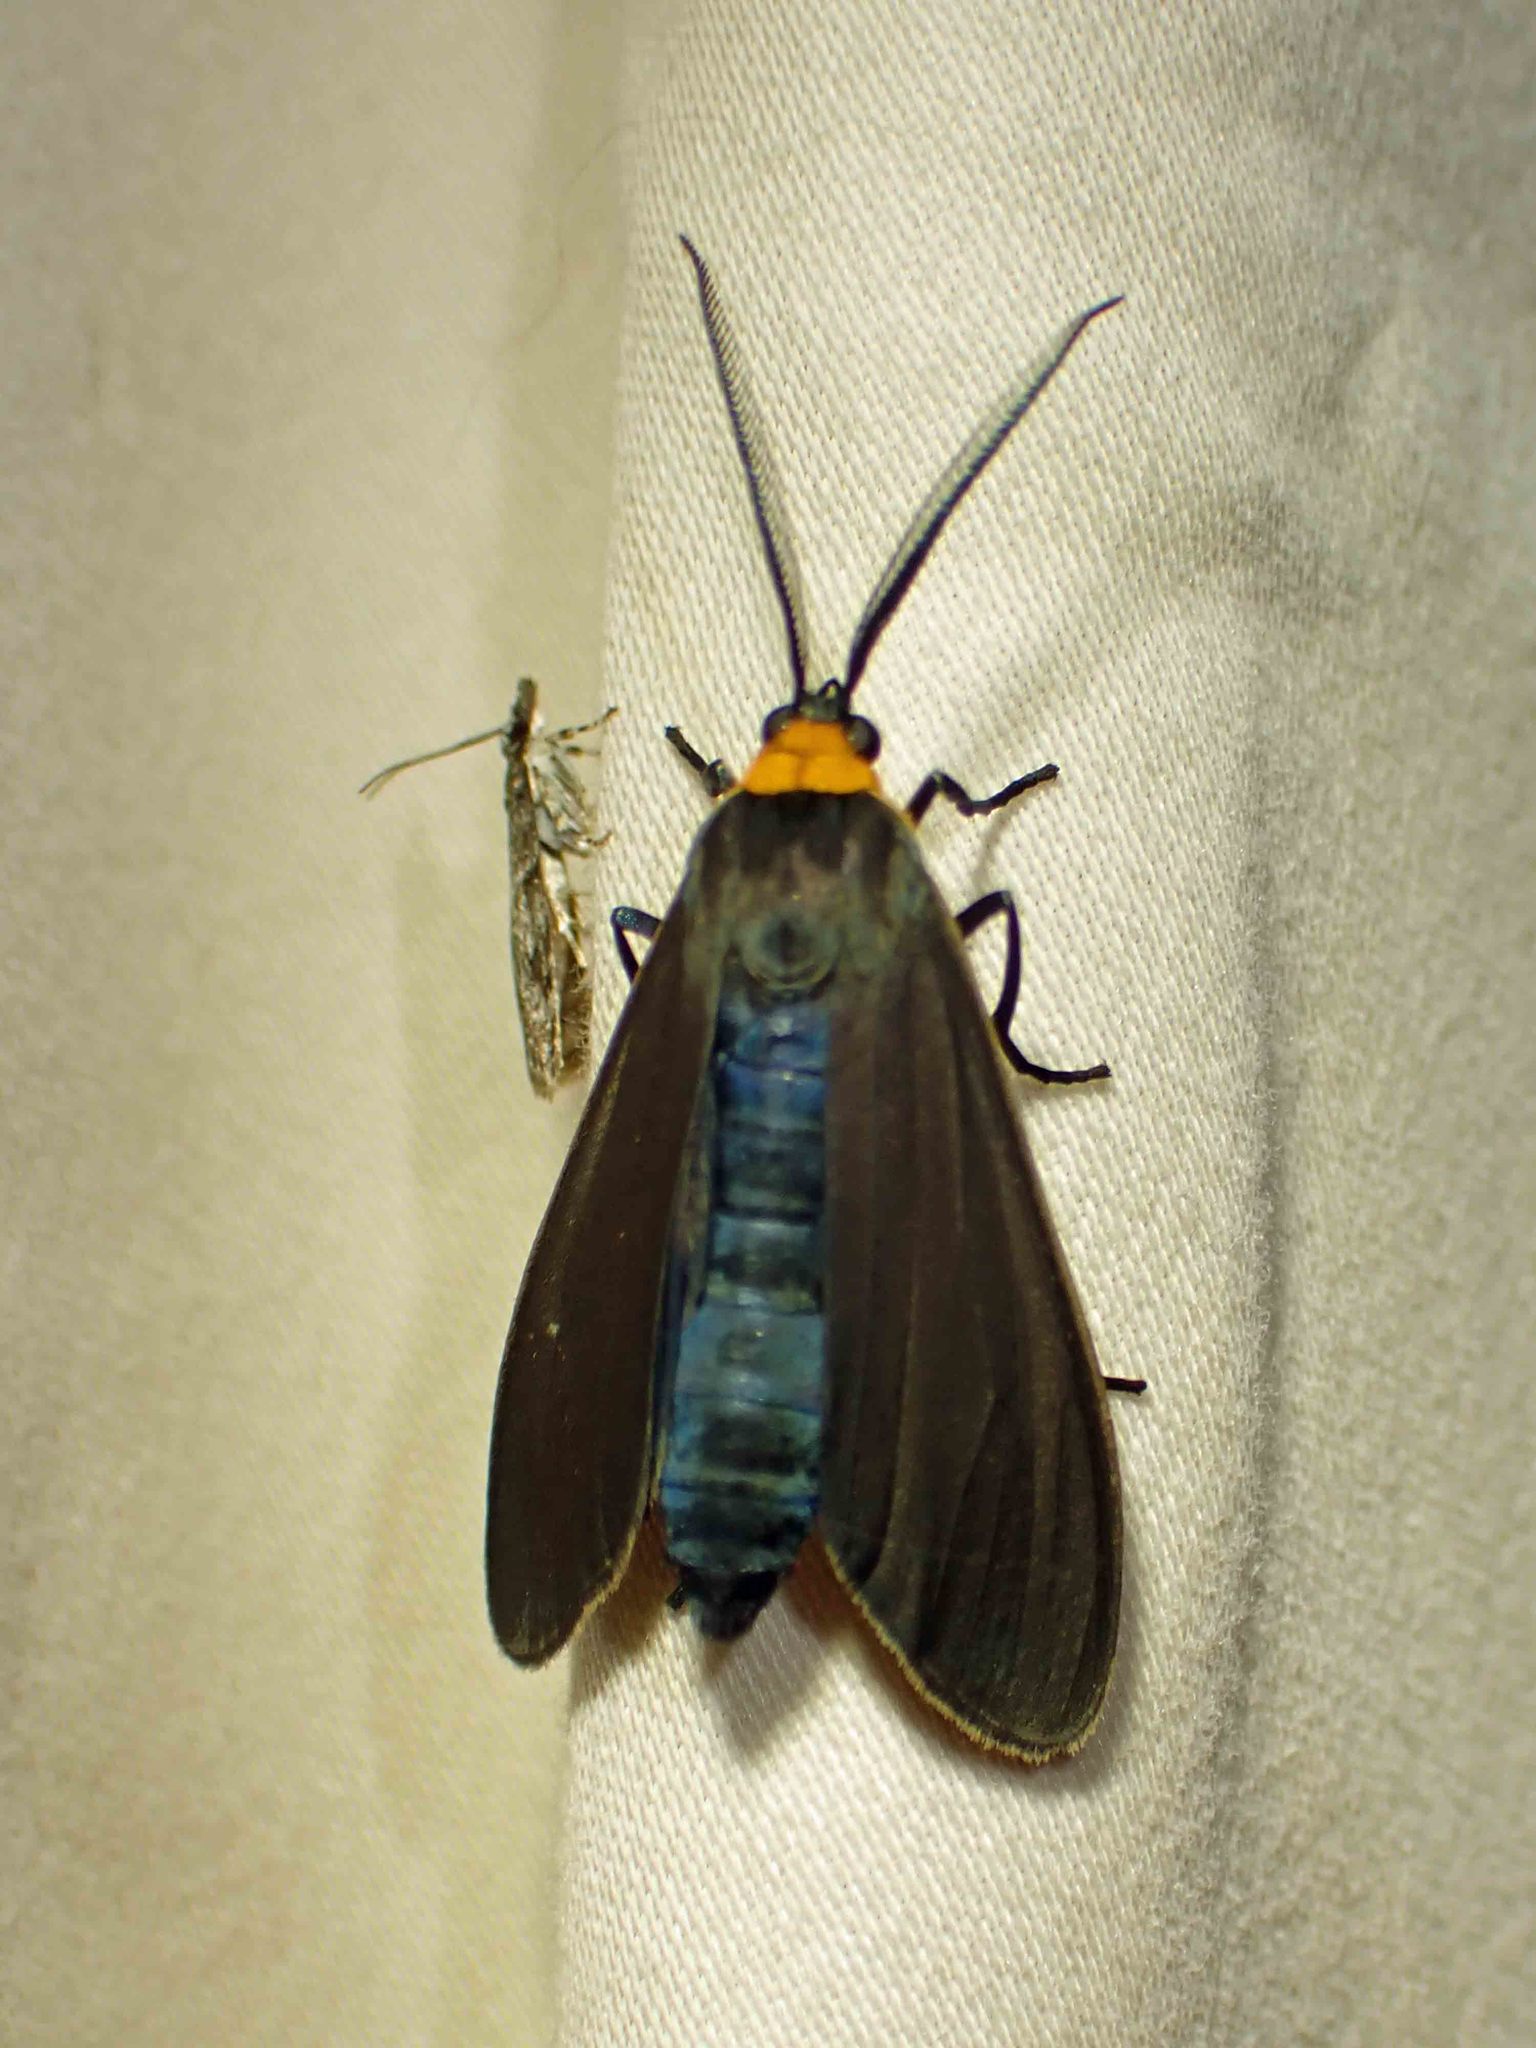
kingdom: Animalia
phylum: Arthropoda
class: Insecta
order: Lepidoptera
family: Erebidae
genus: Cisseps
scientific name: Cisseps fulvicollis
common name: Yellow-collared scape moth
